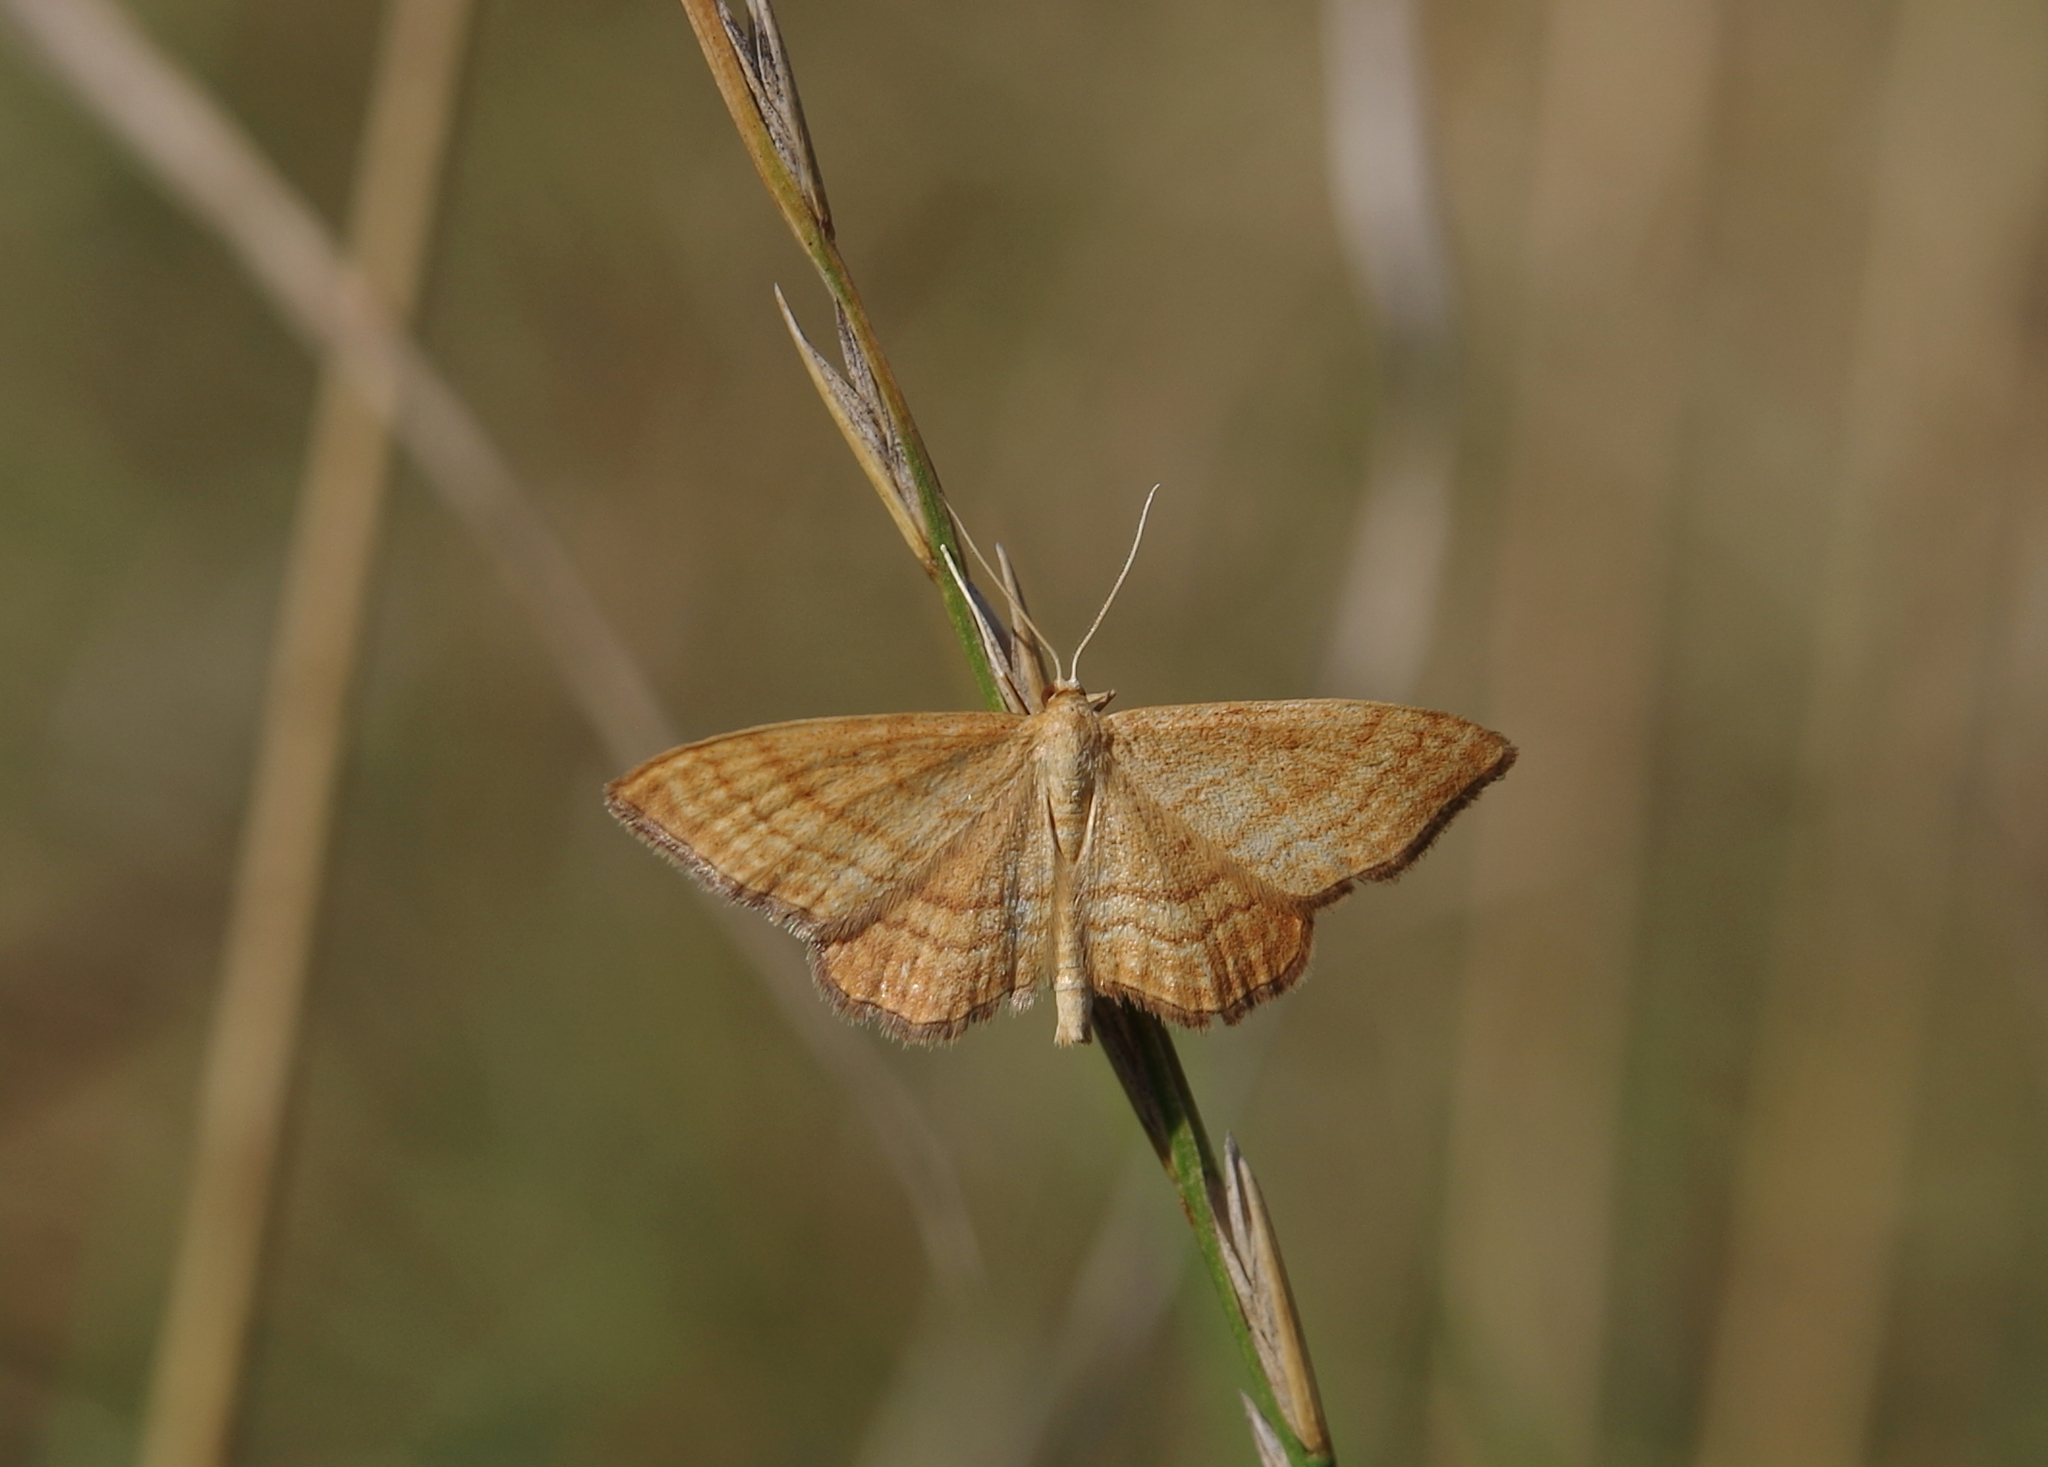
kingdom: Animalia
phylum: Arthropoda
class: Insecta
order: Lepidoptera
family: Geometridae
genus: Idaea
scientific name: Idaea ochrata
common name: Bright wave
